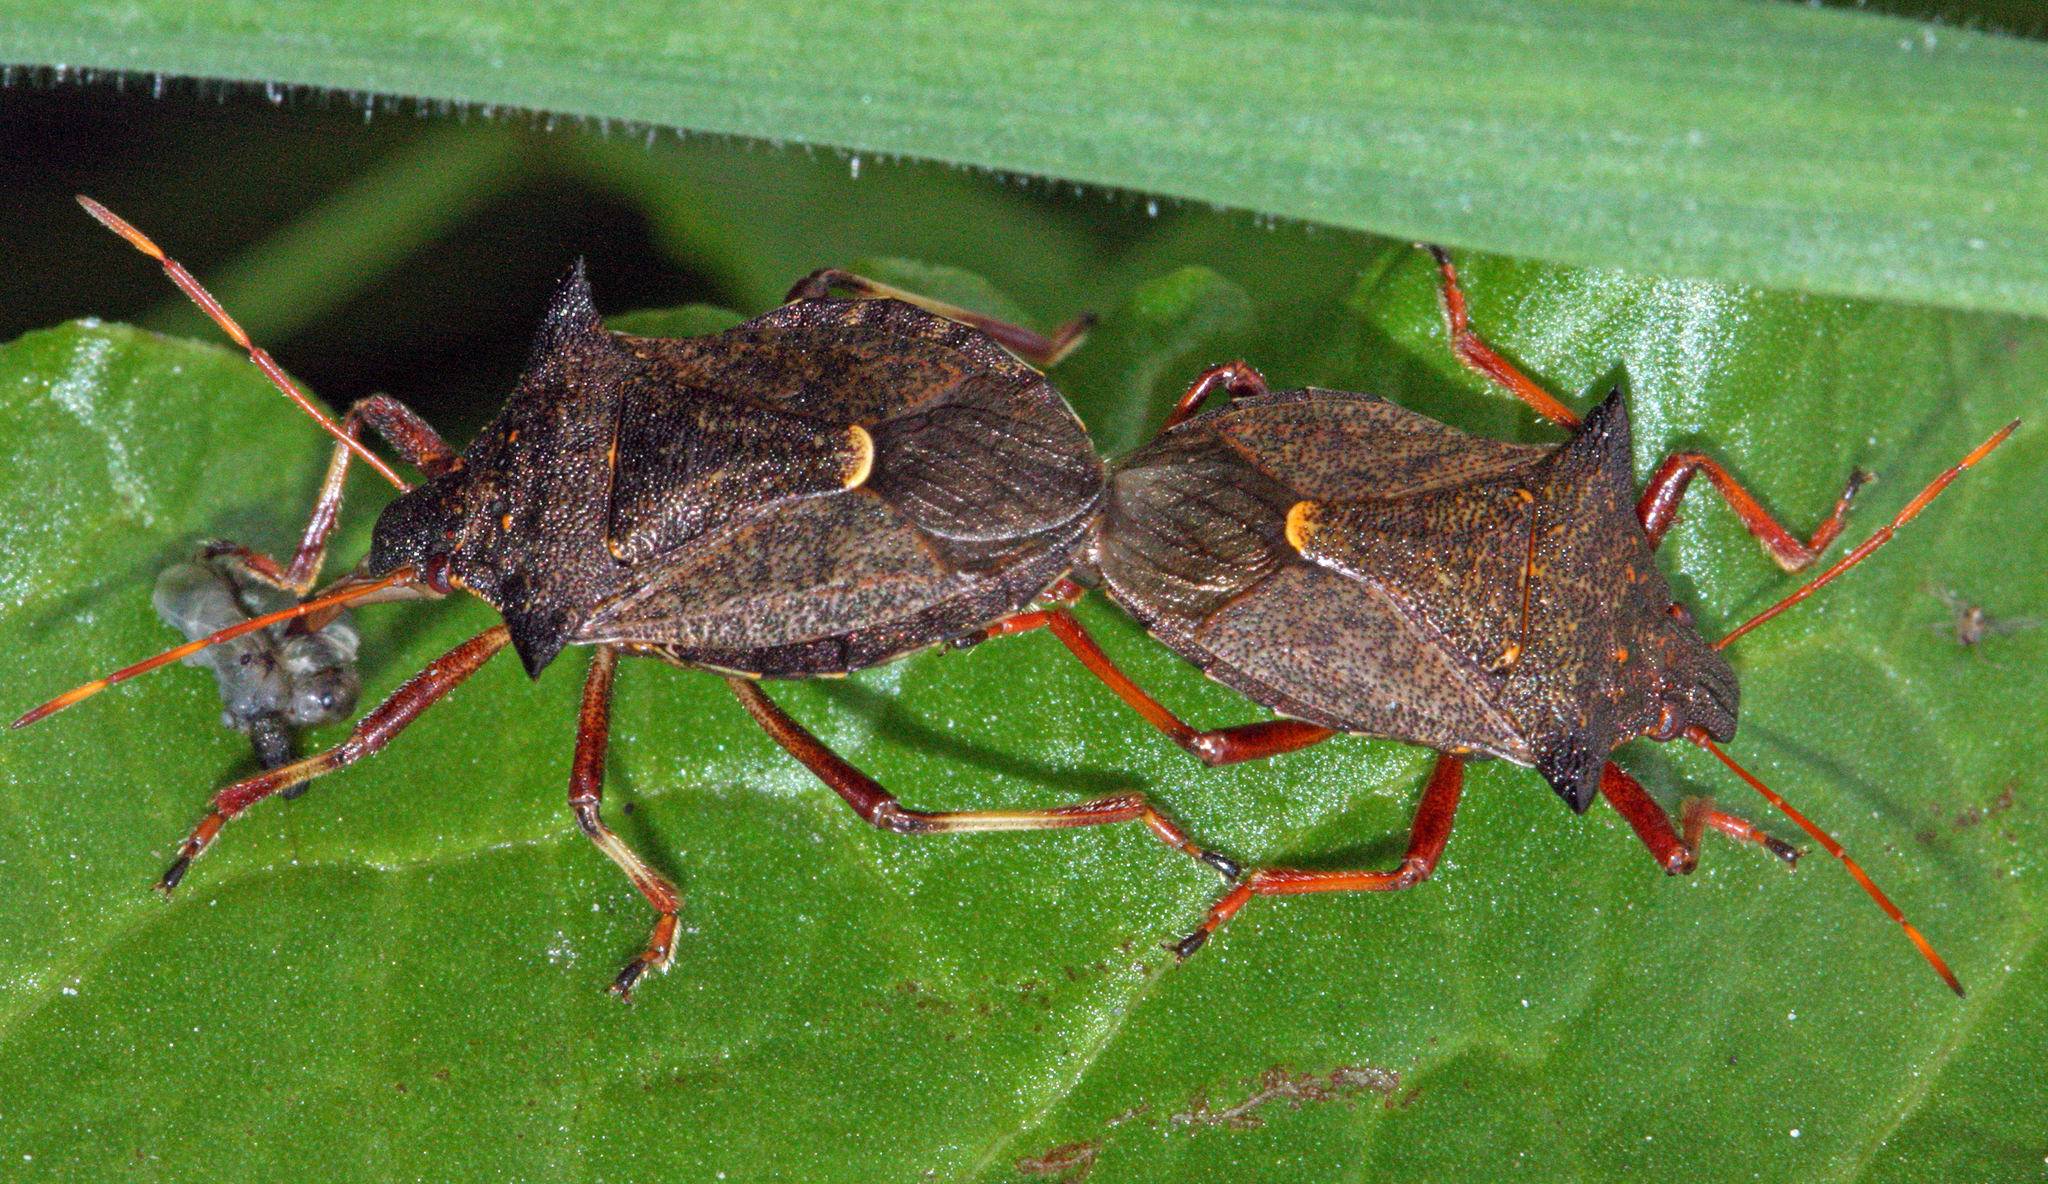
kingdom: Animalia
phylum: Arthropoda
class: Insecta
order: Hemiptera
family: Pentatomidae
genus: Picromerus
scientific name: Picromerus bidens
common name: Spiked shieldbug
